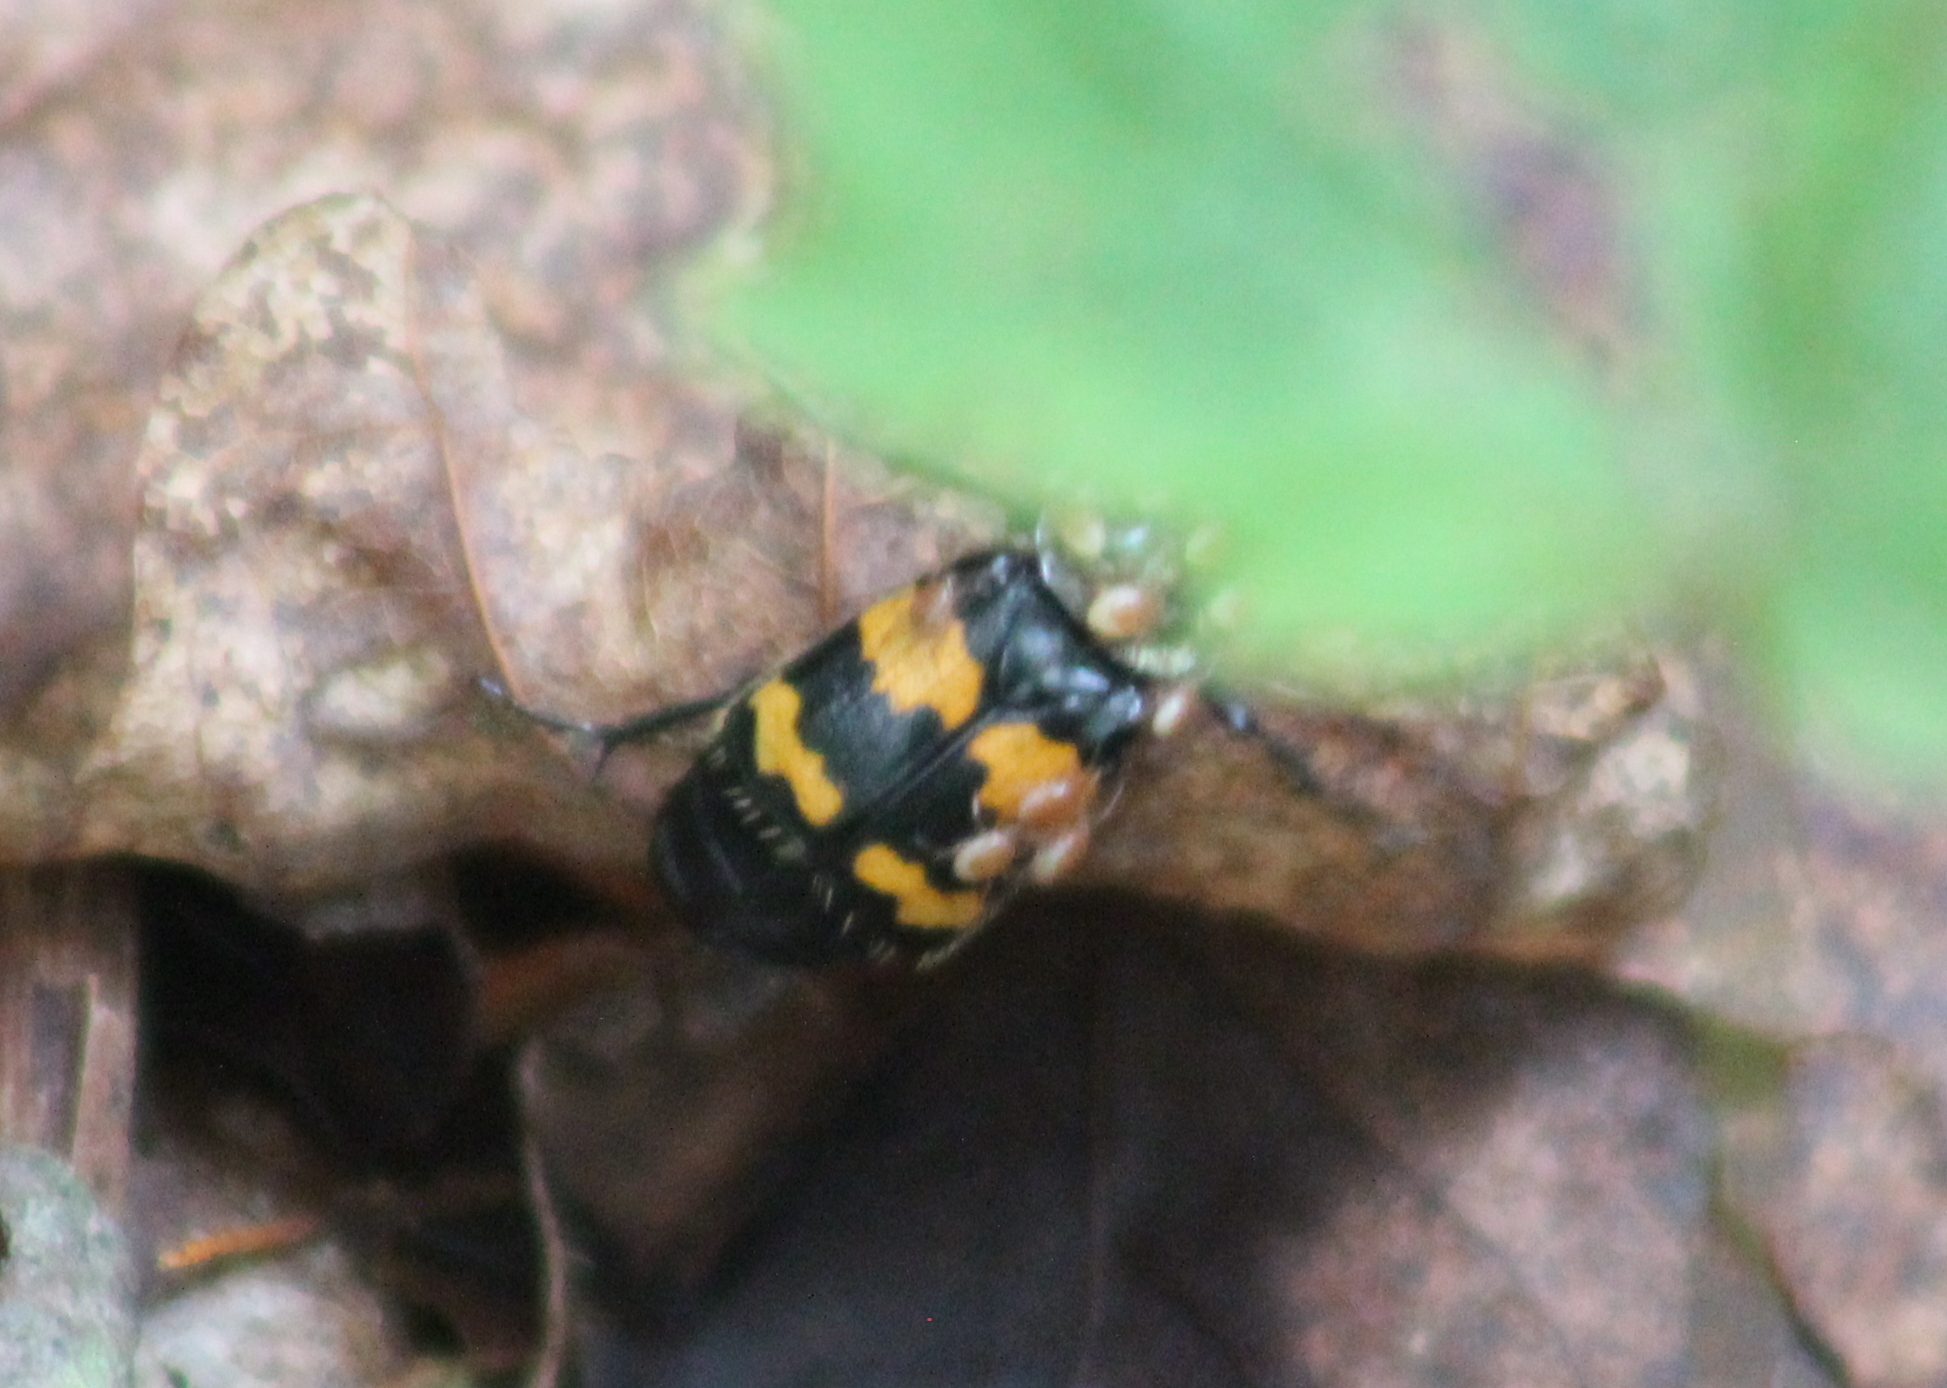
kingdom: Animalia
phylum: Arthropoda
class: Insecta
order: Coleoptera
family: Staphylinidae
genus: Nicrophorus
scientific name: Nicrophorus tomentosus
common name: Tomentose burying beetle
